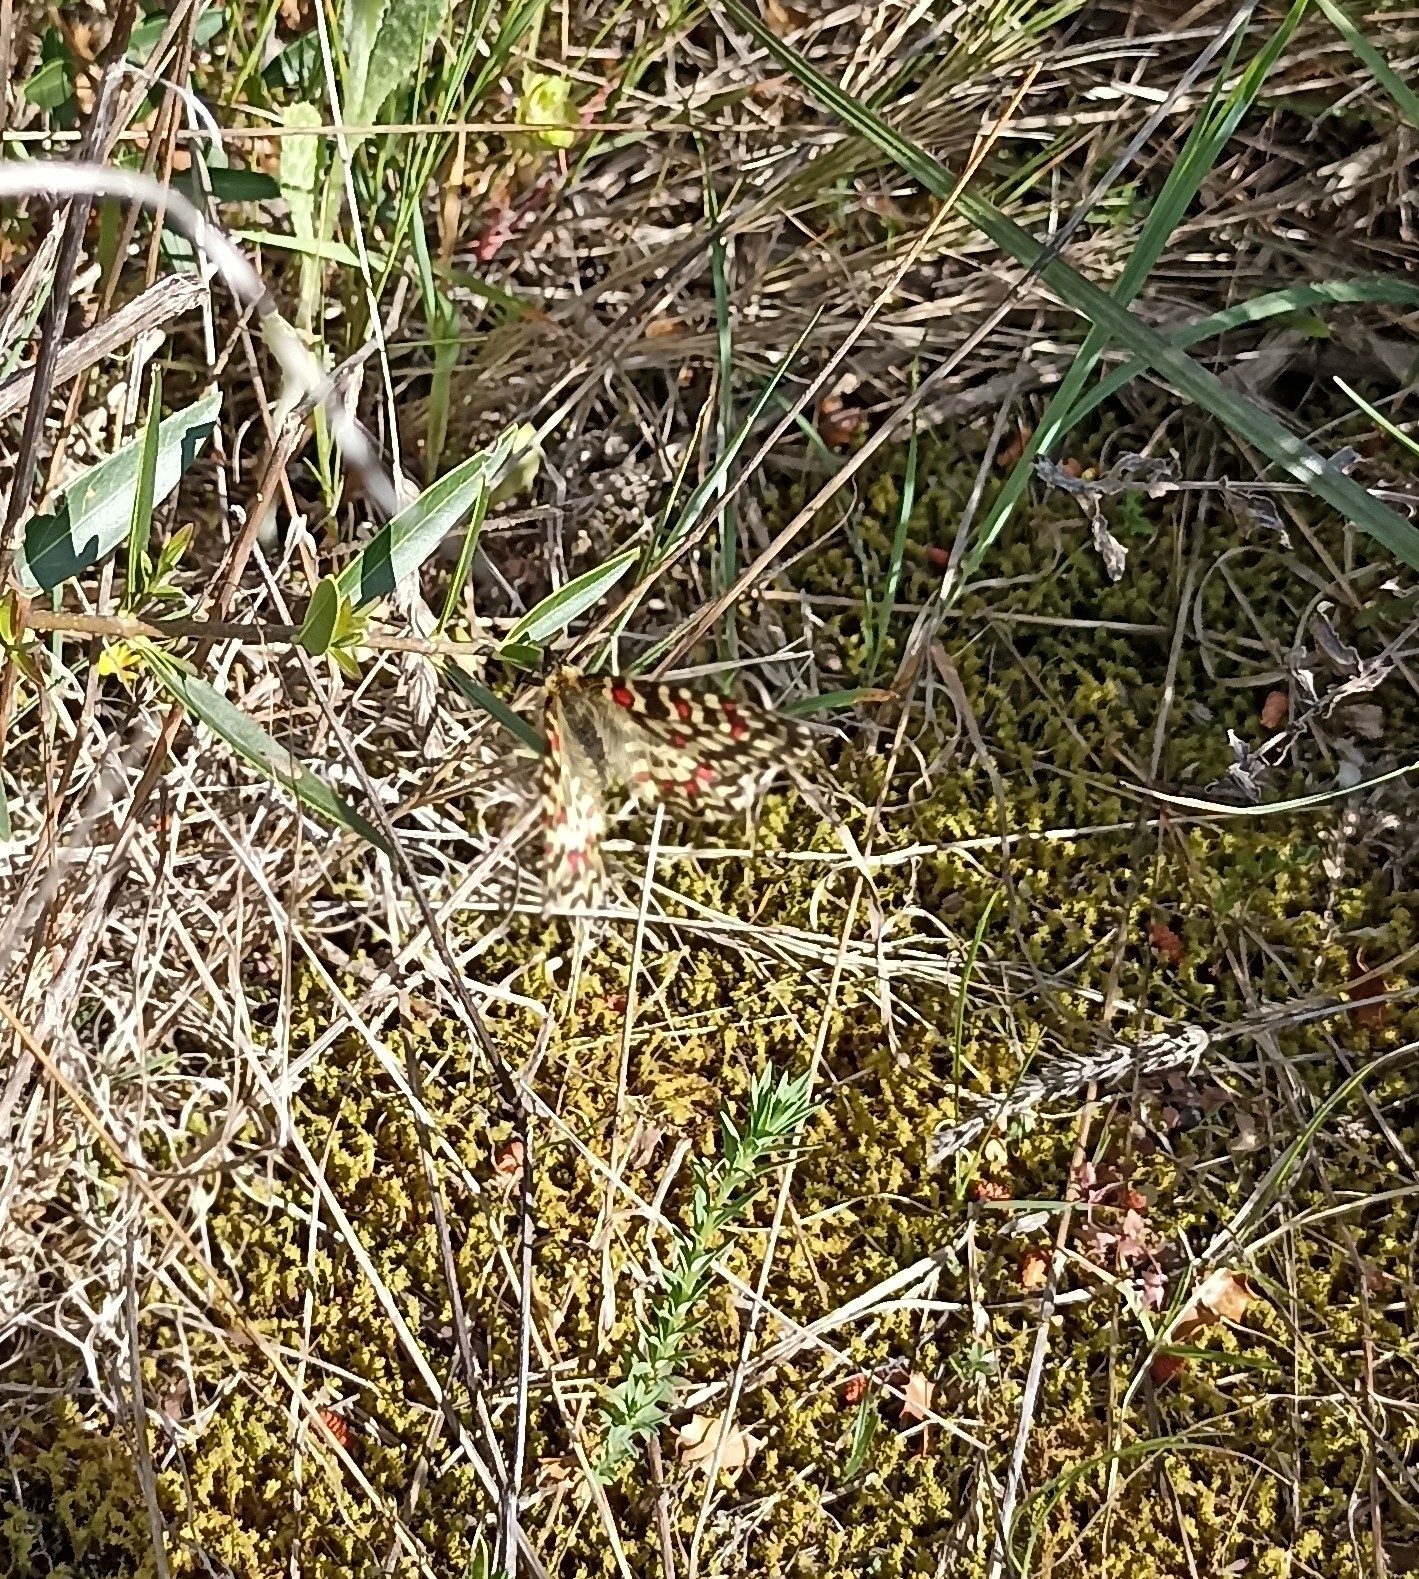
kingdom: Animalia
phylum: Arthropoda
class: Insecta
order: Lepidoptera
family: Papilionidae
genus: Zerynthia
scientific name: Zerynthia rumina
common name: Spanish festoon
